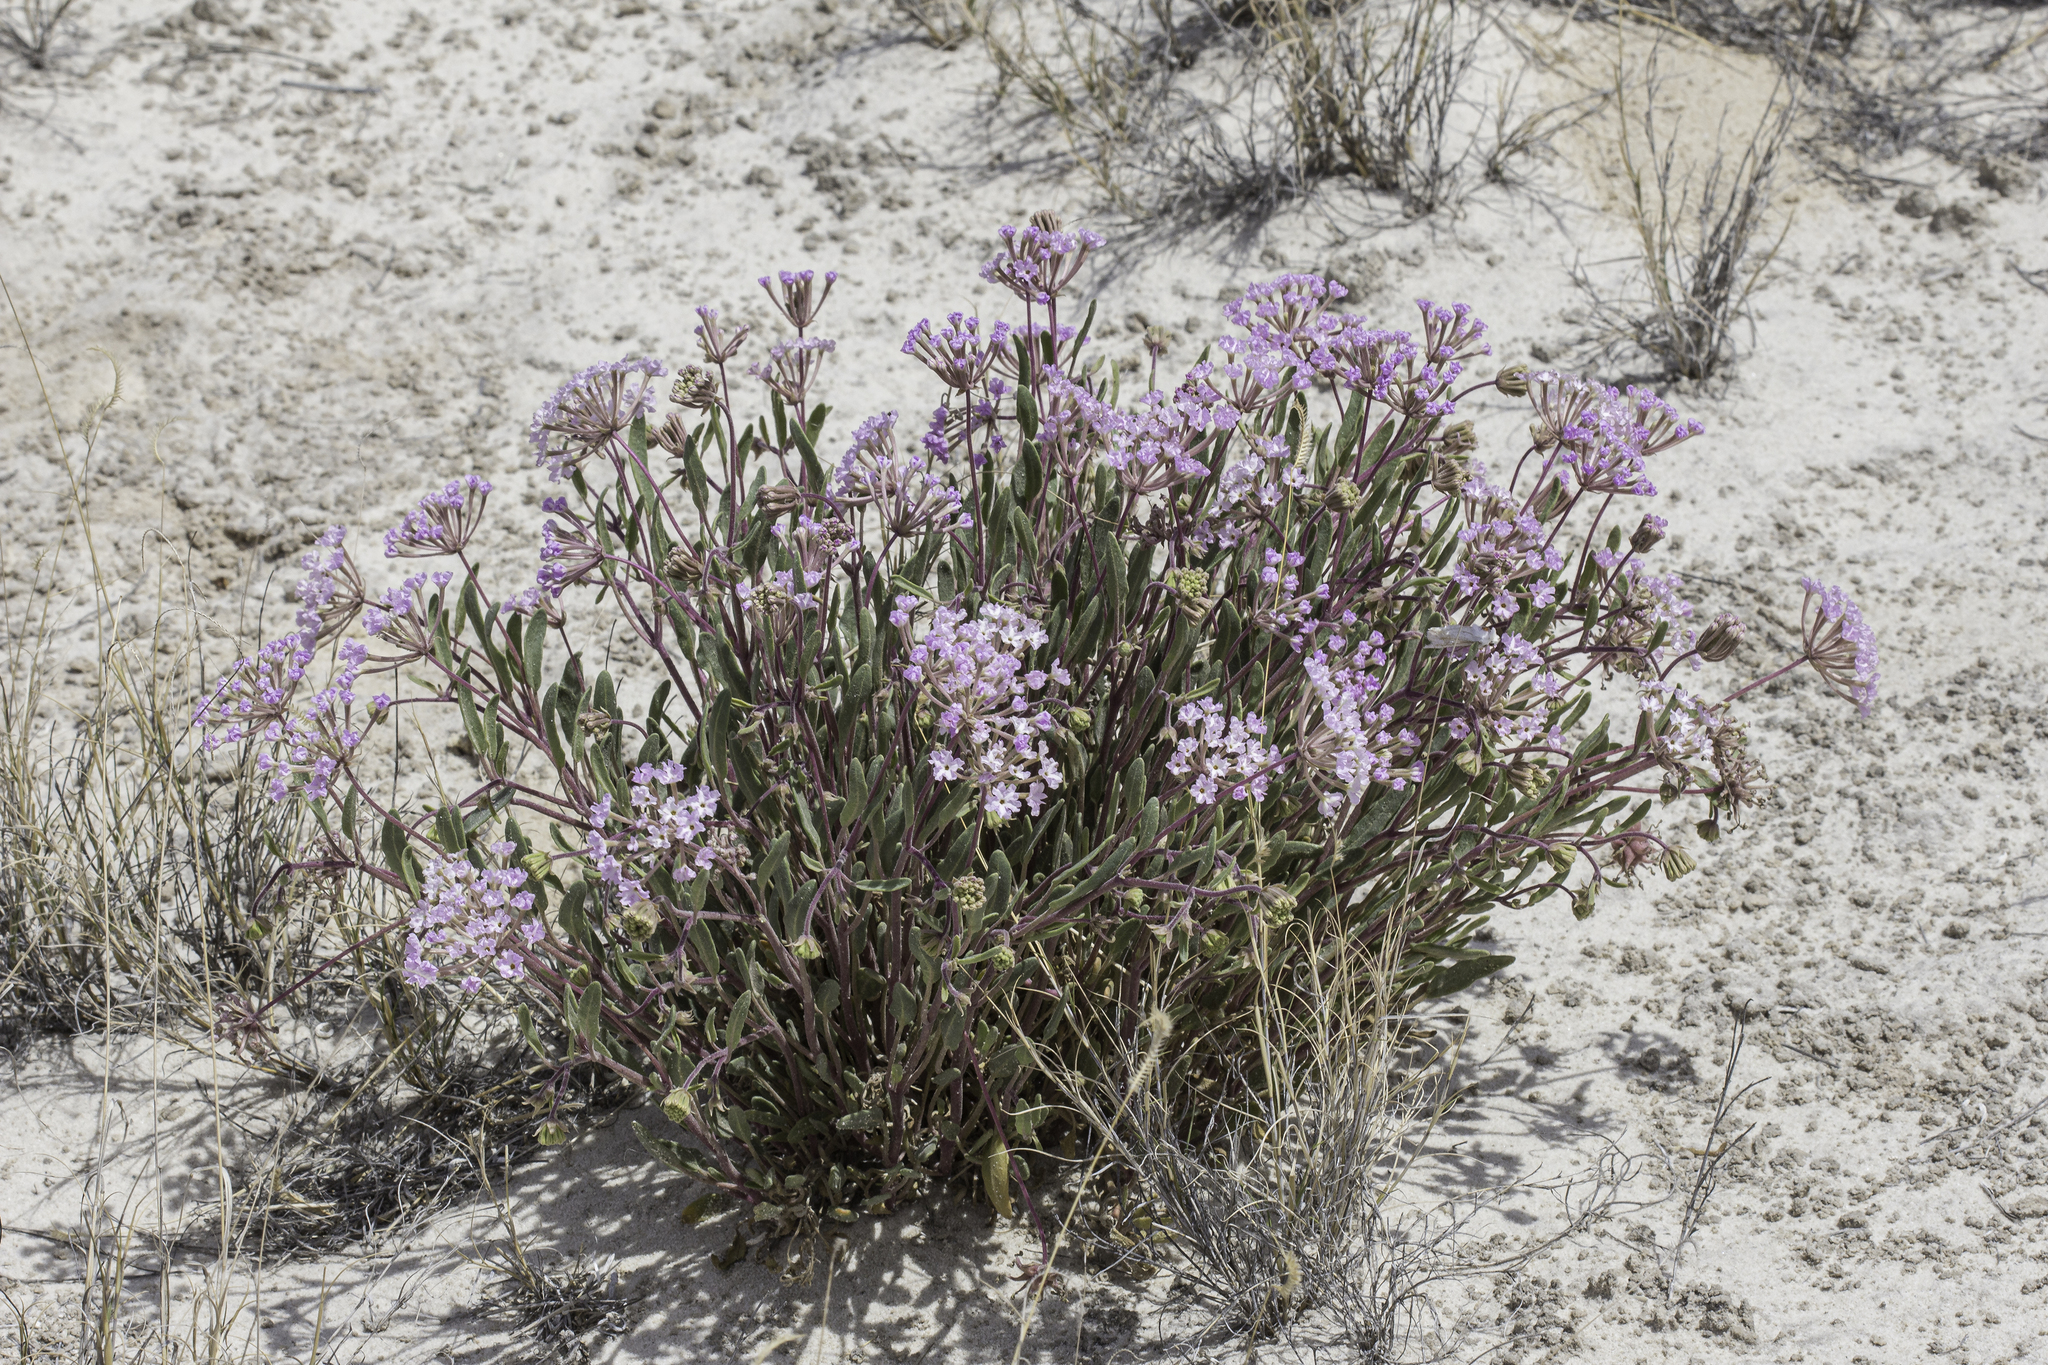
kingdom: Plantae
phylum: Tracheophyta
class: Magnoliopsida
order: Caryophyllales
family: Nyctaginaceae
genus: Abronia
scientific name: Abronia angustifolia
